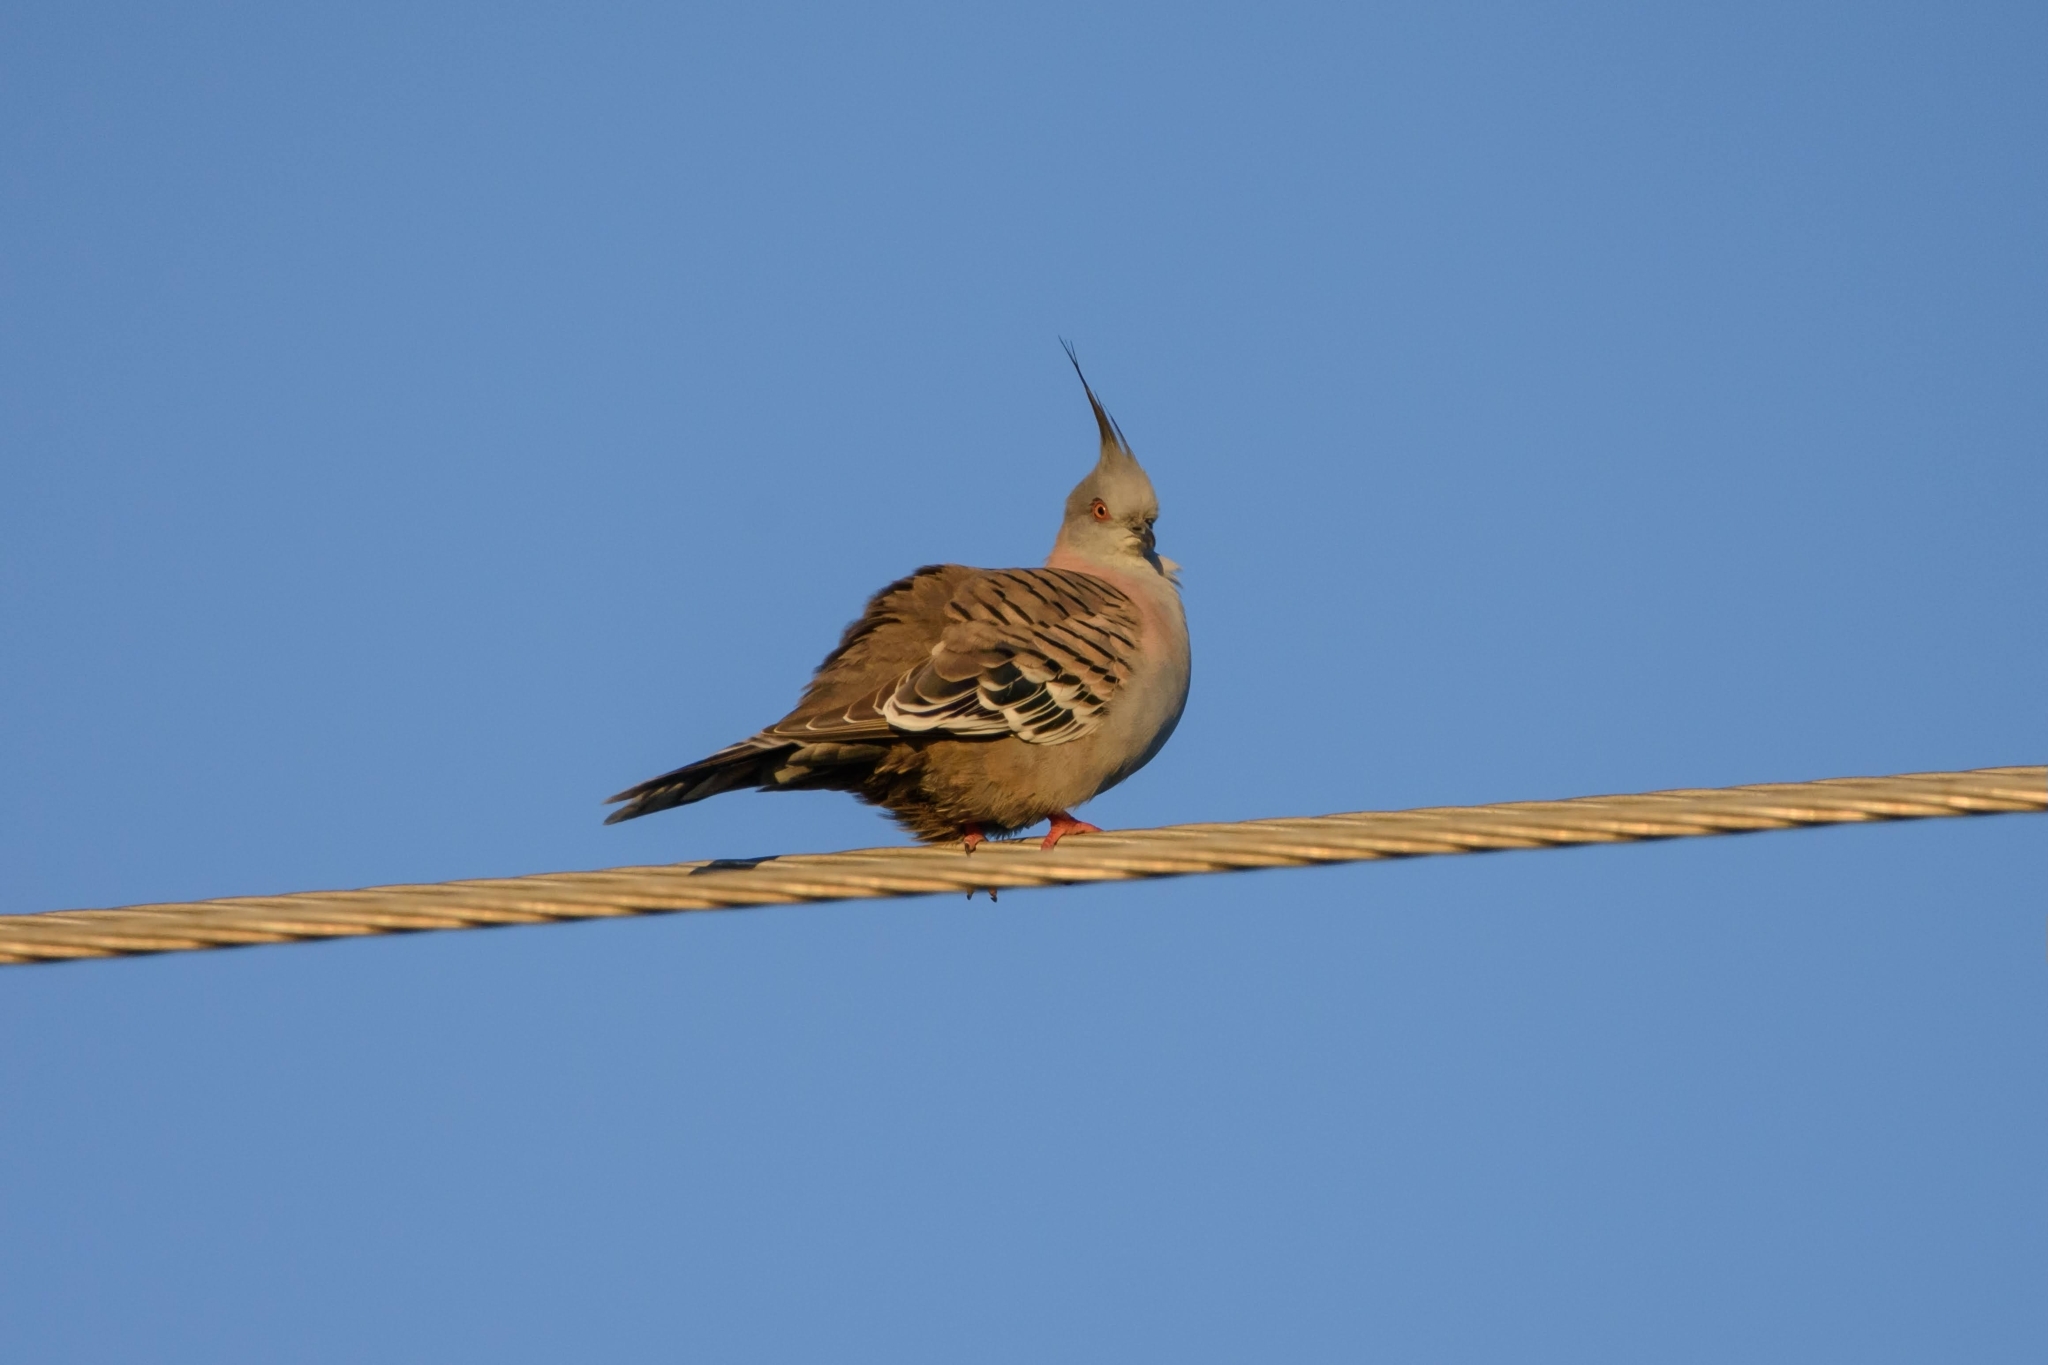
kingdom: Animalia
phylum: Chordata
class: Aves
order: Columbiformes
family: Columbidae
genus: Ocyphaps
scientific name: Ocyphaps lophotes
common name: Crested pigeon
